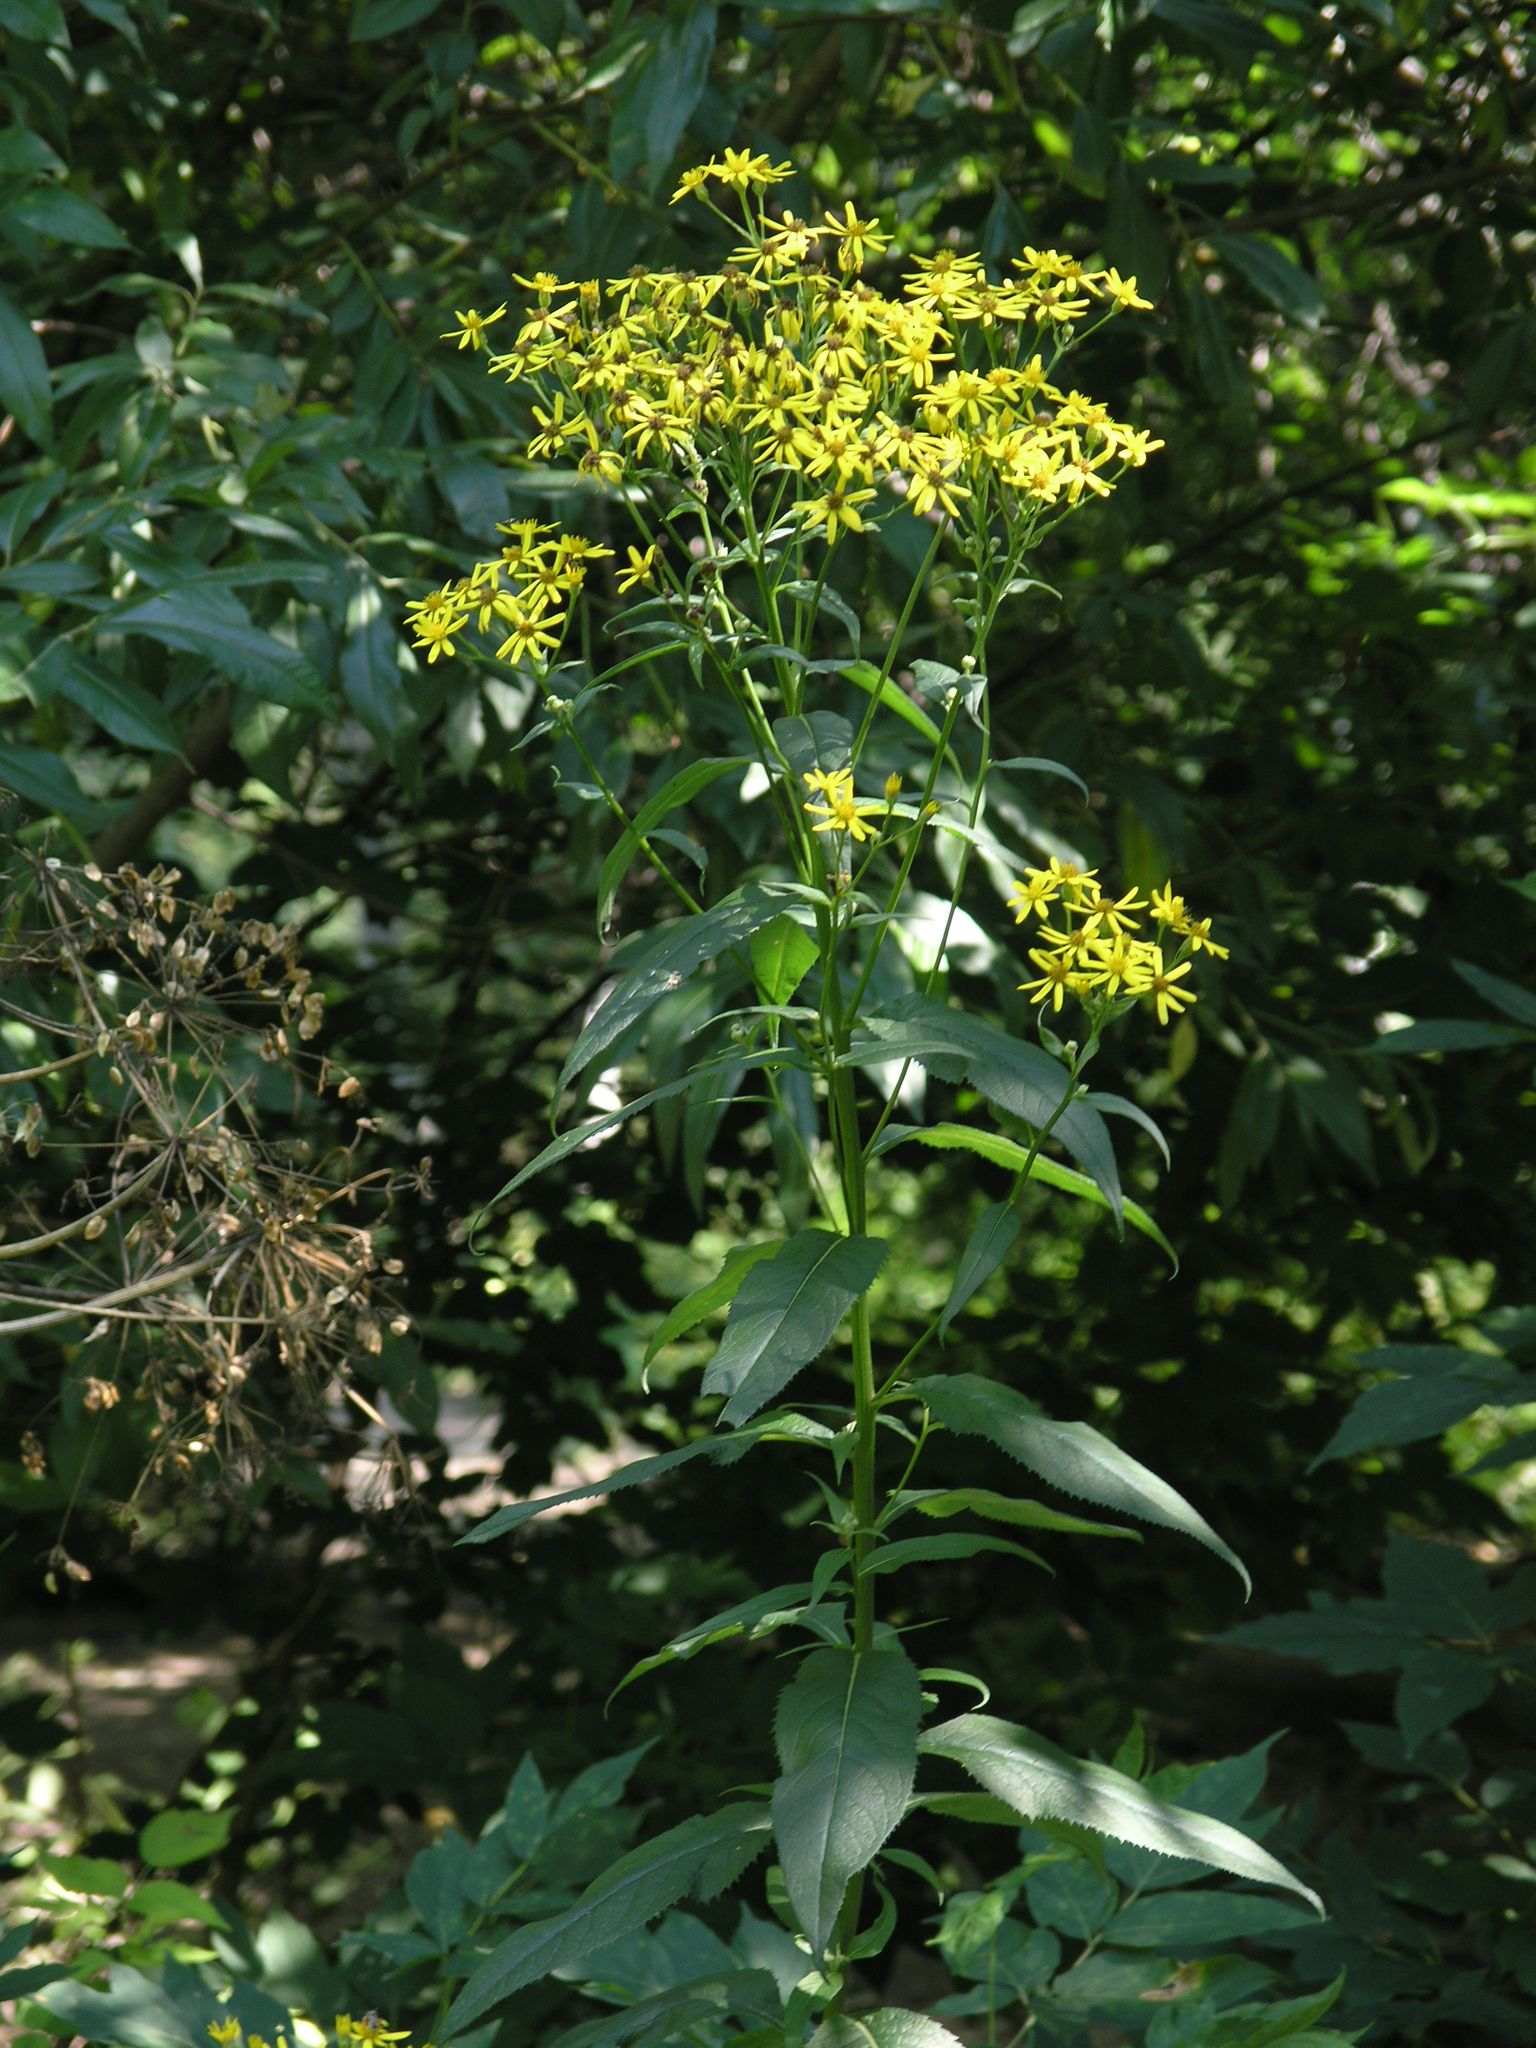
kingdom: Plantae
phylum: Tracheophyta
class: Magnoliopsida
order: Asterales
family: Asteraceae
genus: Senecio
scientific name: Senecio nemorensis
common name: Alpine ragwort
